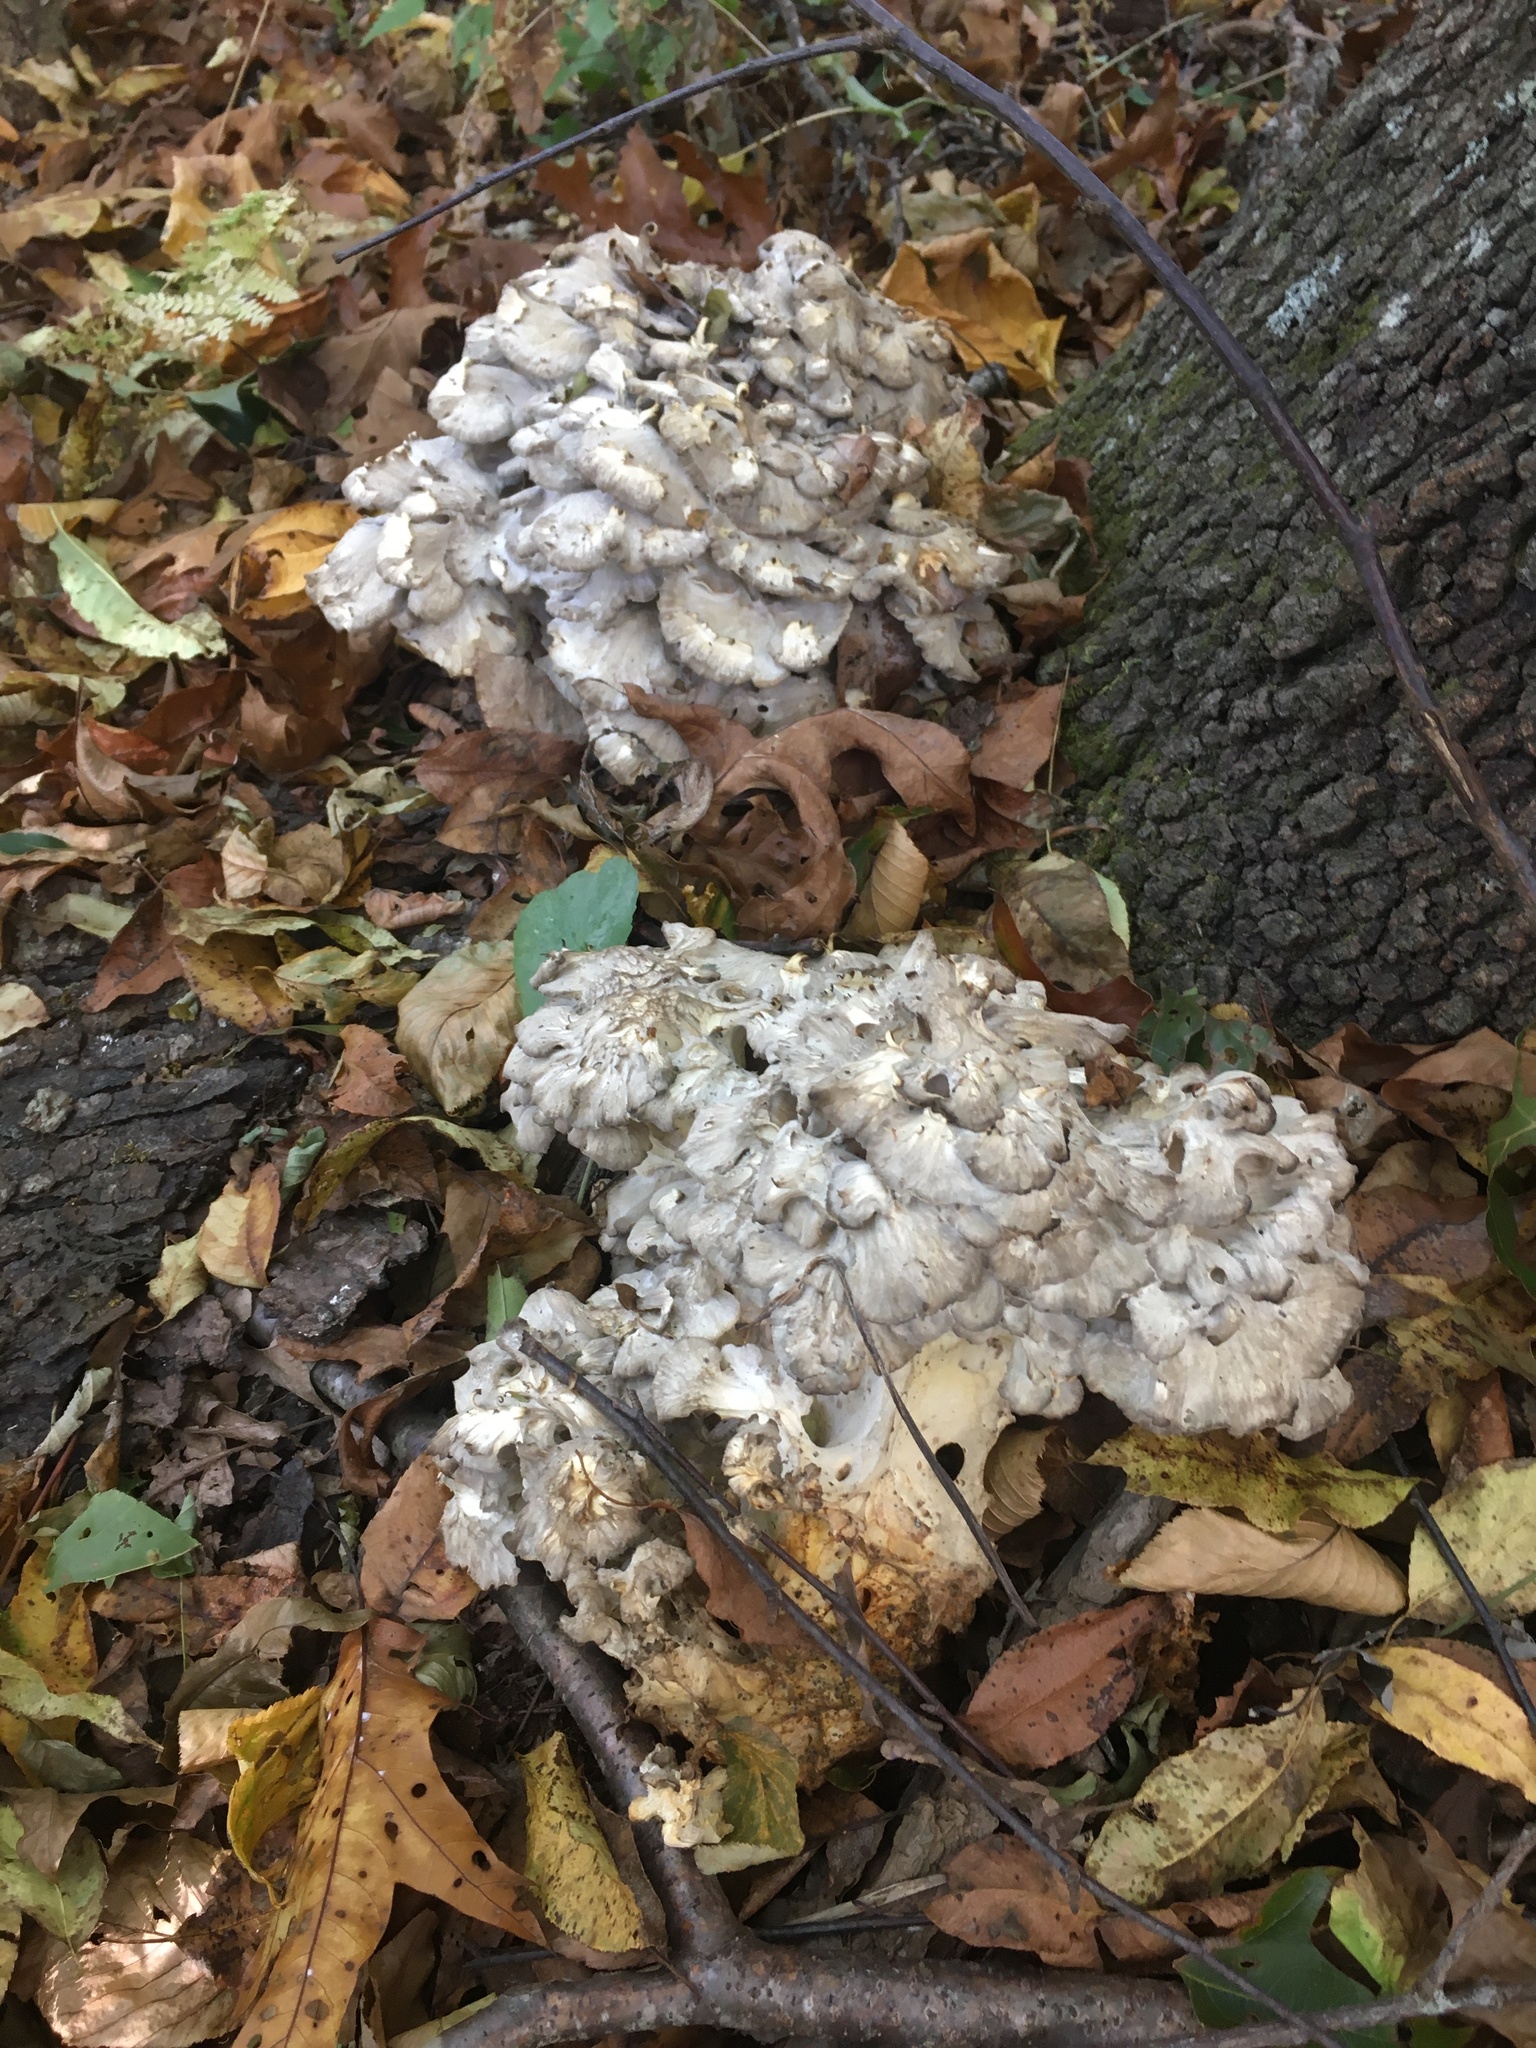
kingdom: Fungi
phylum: Basidiomycota
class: Agaricomycetes
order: Polyporales
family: Grifolaceae
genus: Grifola
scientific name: Grifola frondosa
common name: Hen of the woods
